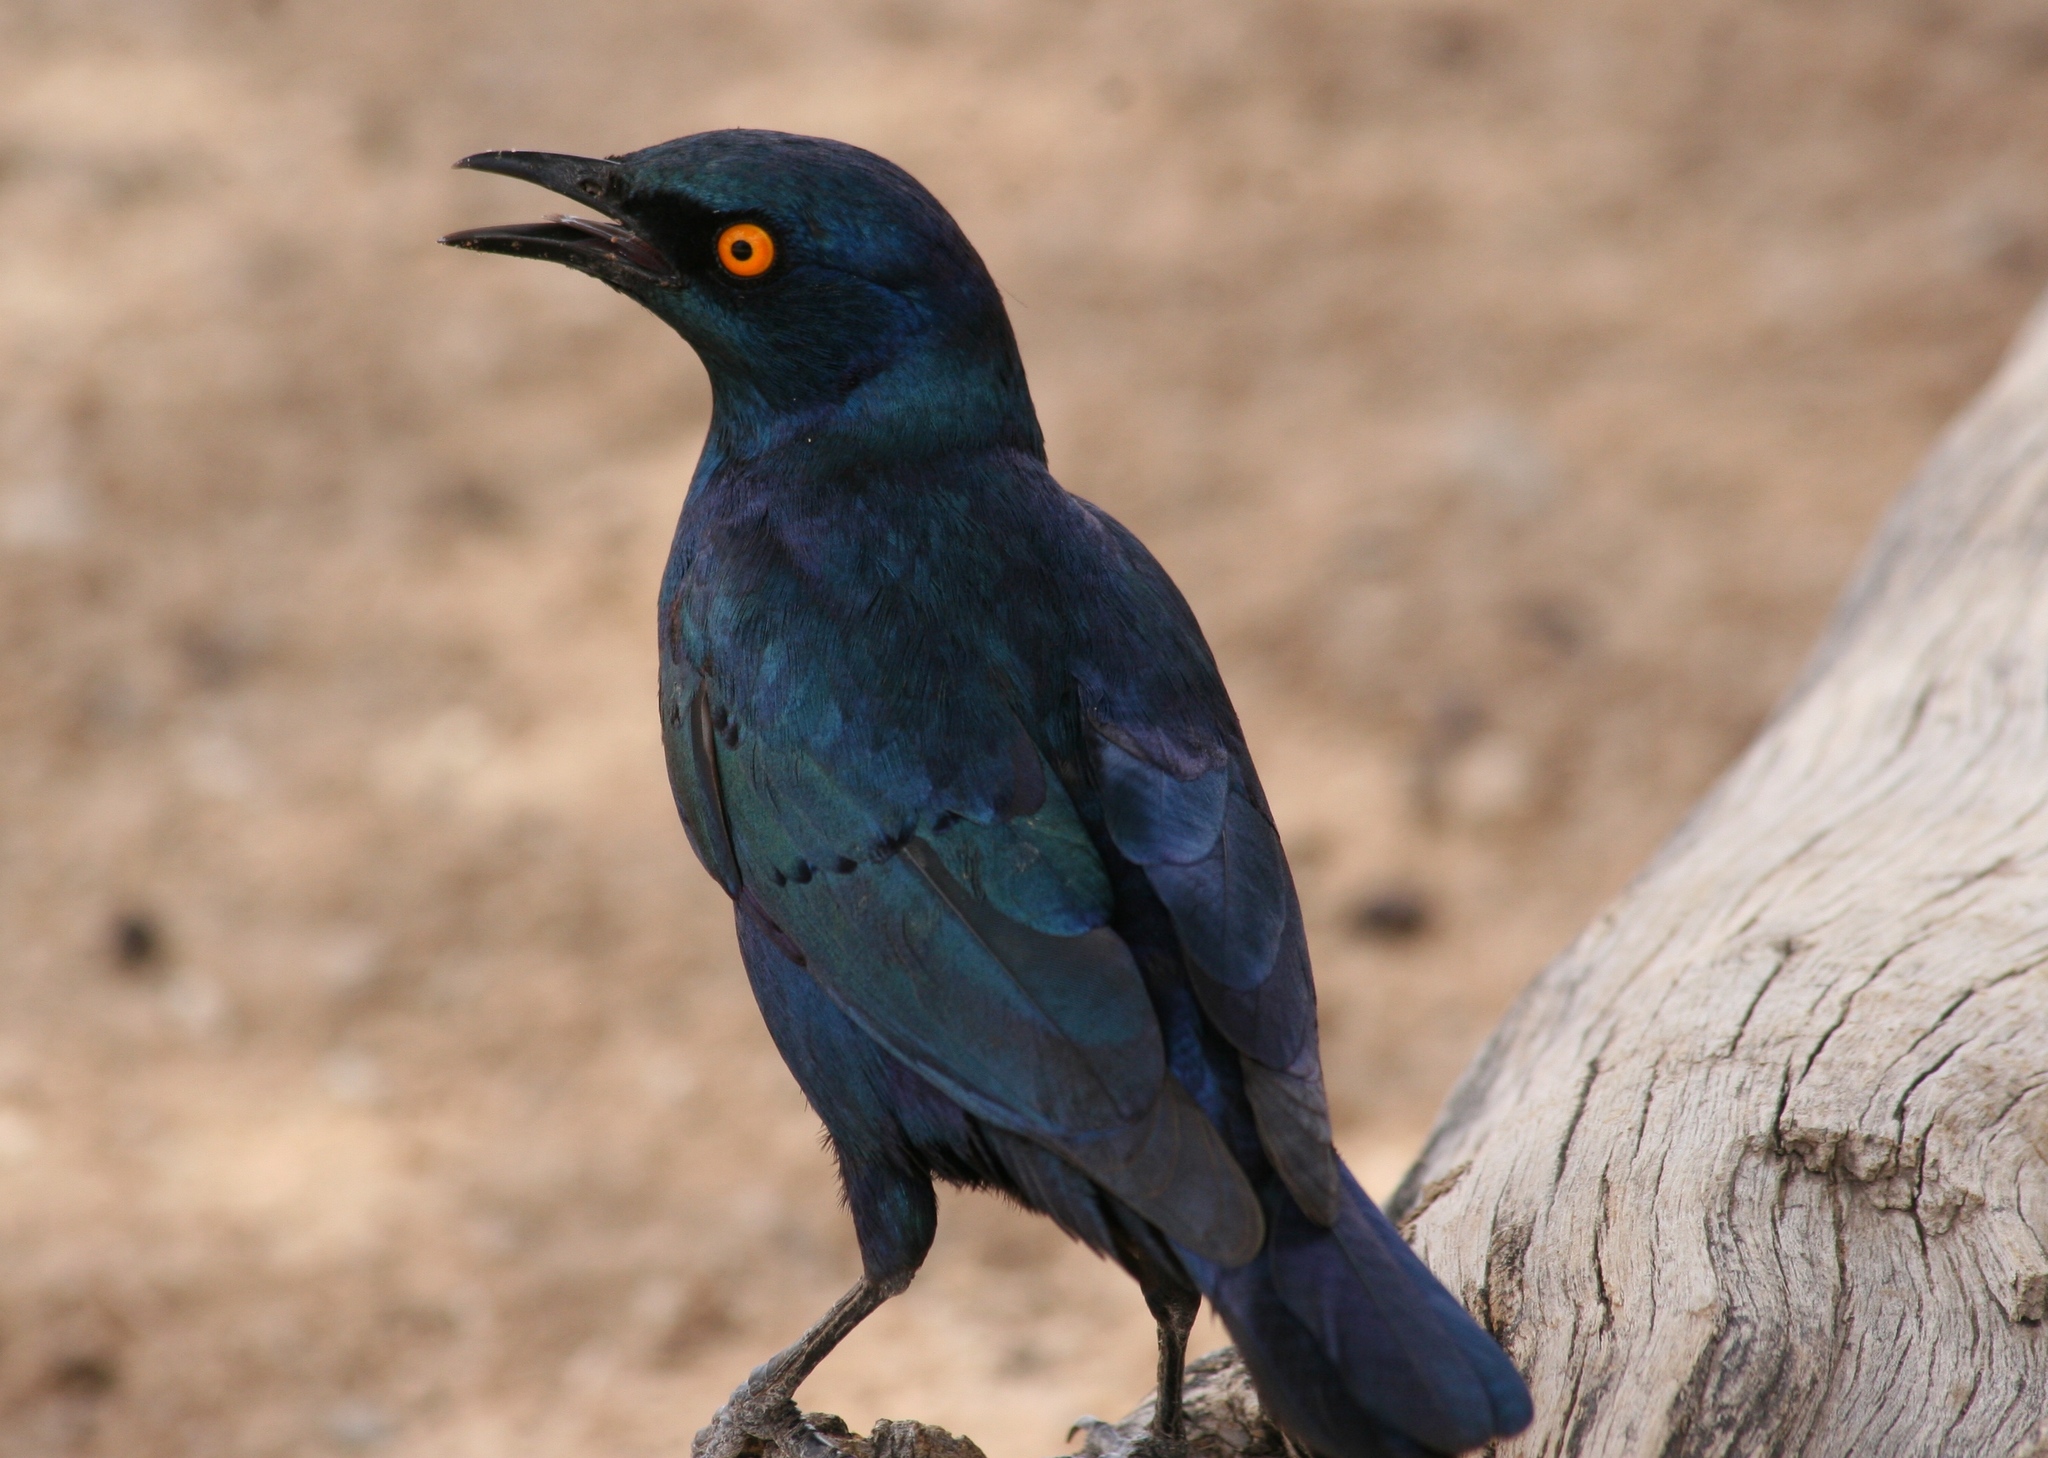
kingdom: Animalia
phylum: Chordata
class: Aves
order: Passeriformes
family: Sturnidae
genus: Lamprotornis
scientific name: Lamprotornis nitens
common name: Cape starling
